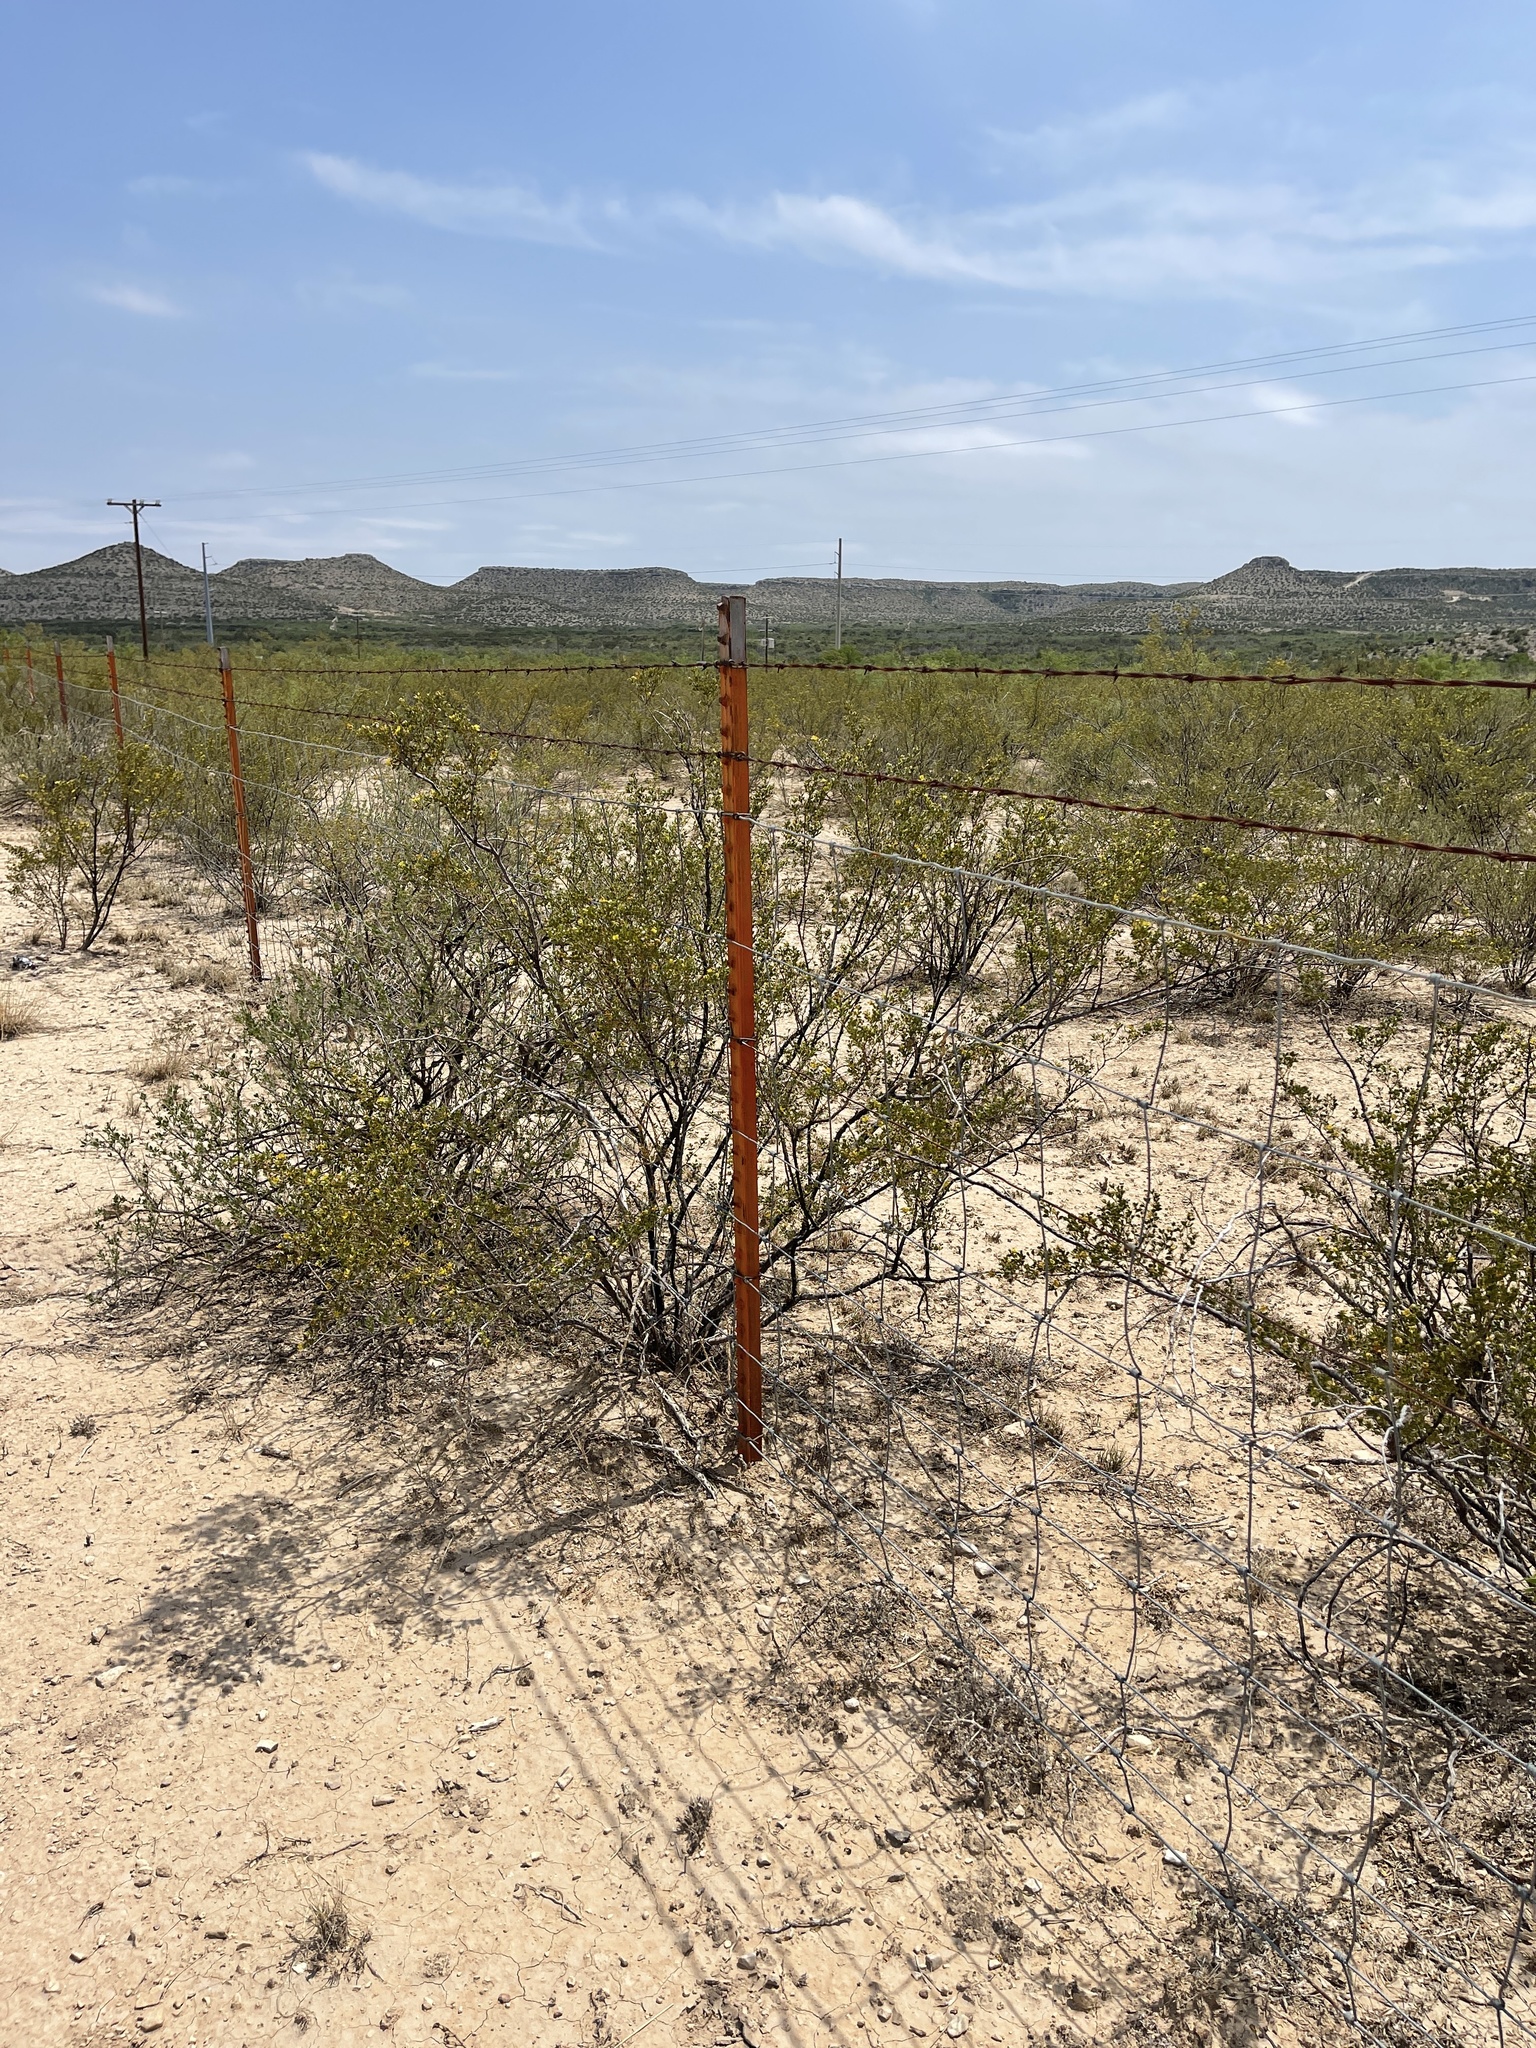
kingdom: Plantae
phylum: Tracheophyta
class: Magnoliopsida
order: Zygophyllales
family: Zygophyllaceae
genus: Larrea
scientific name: Larrea tridentata
